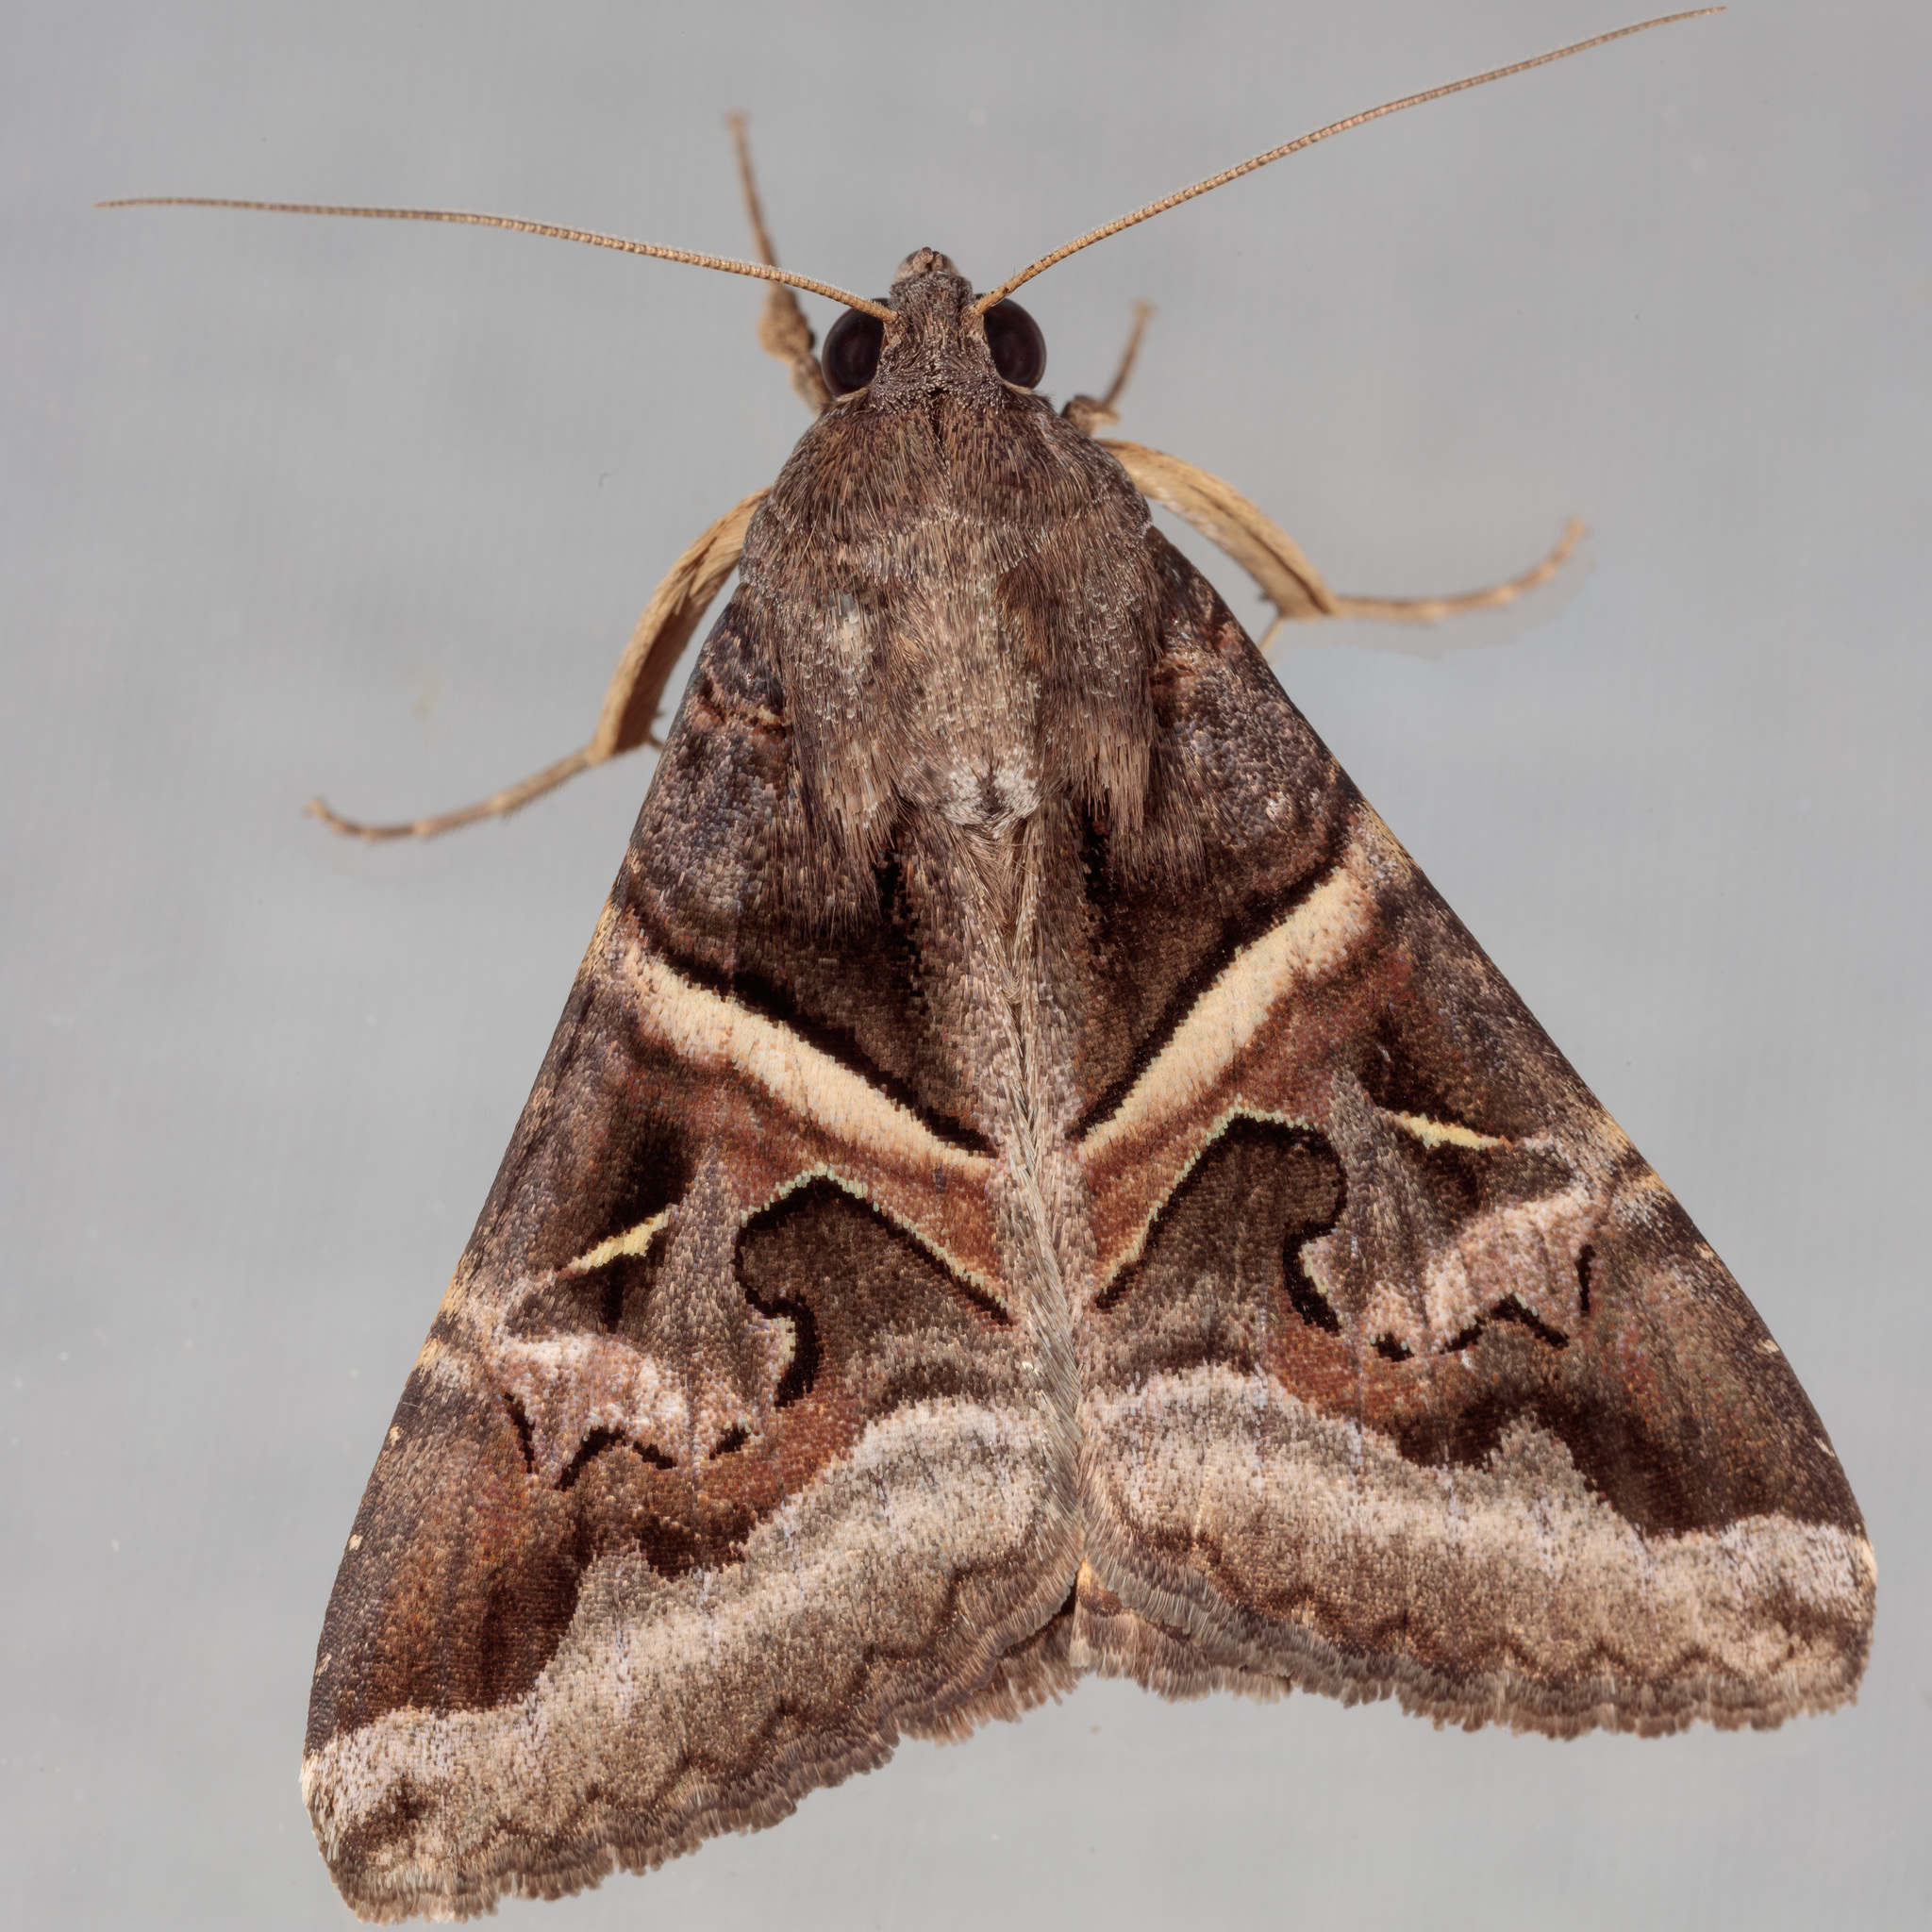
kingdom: Animalia
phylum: Arthropoda
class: Insecta
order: Lepidoptera
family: Erebidae
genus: Melipotis
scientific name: Melipotis indomita
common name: Moth
